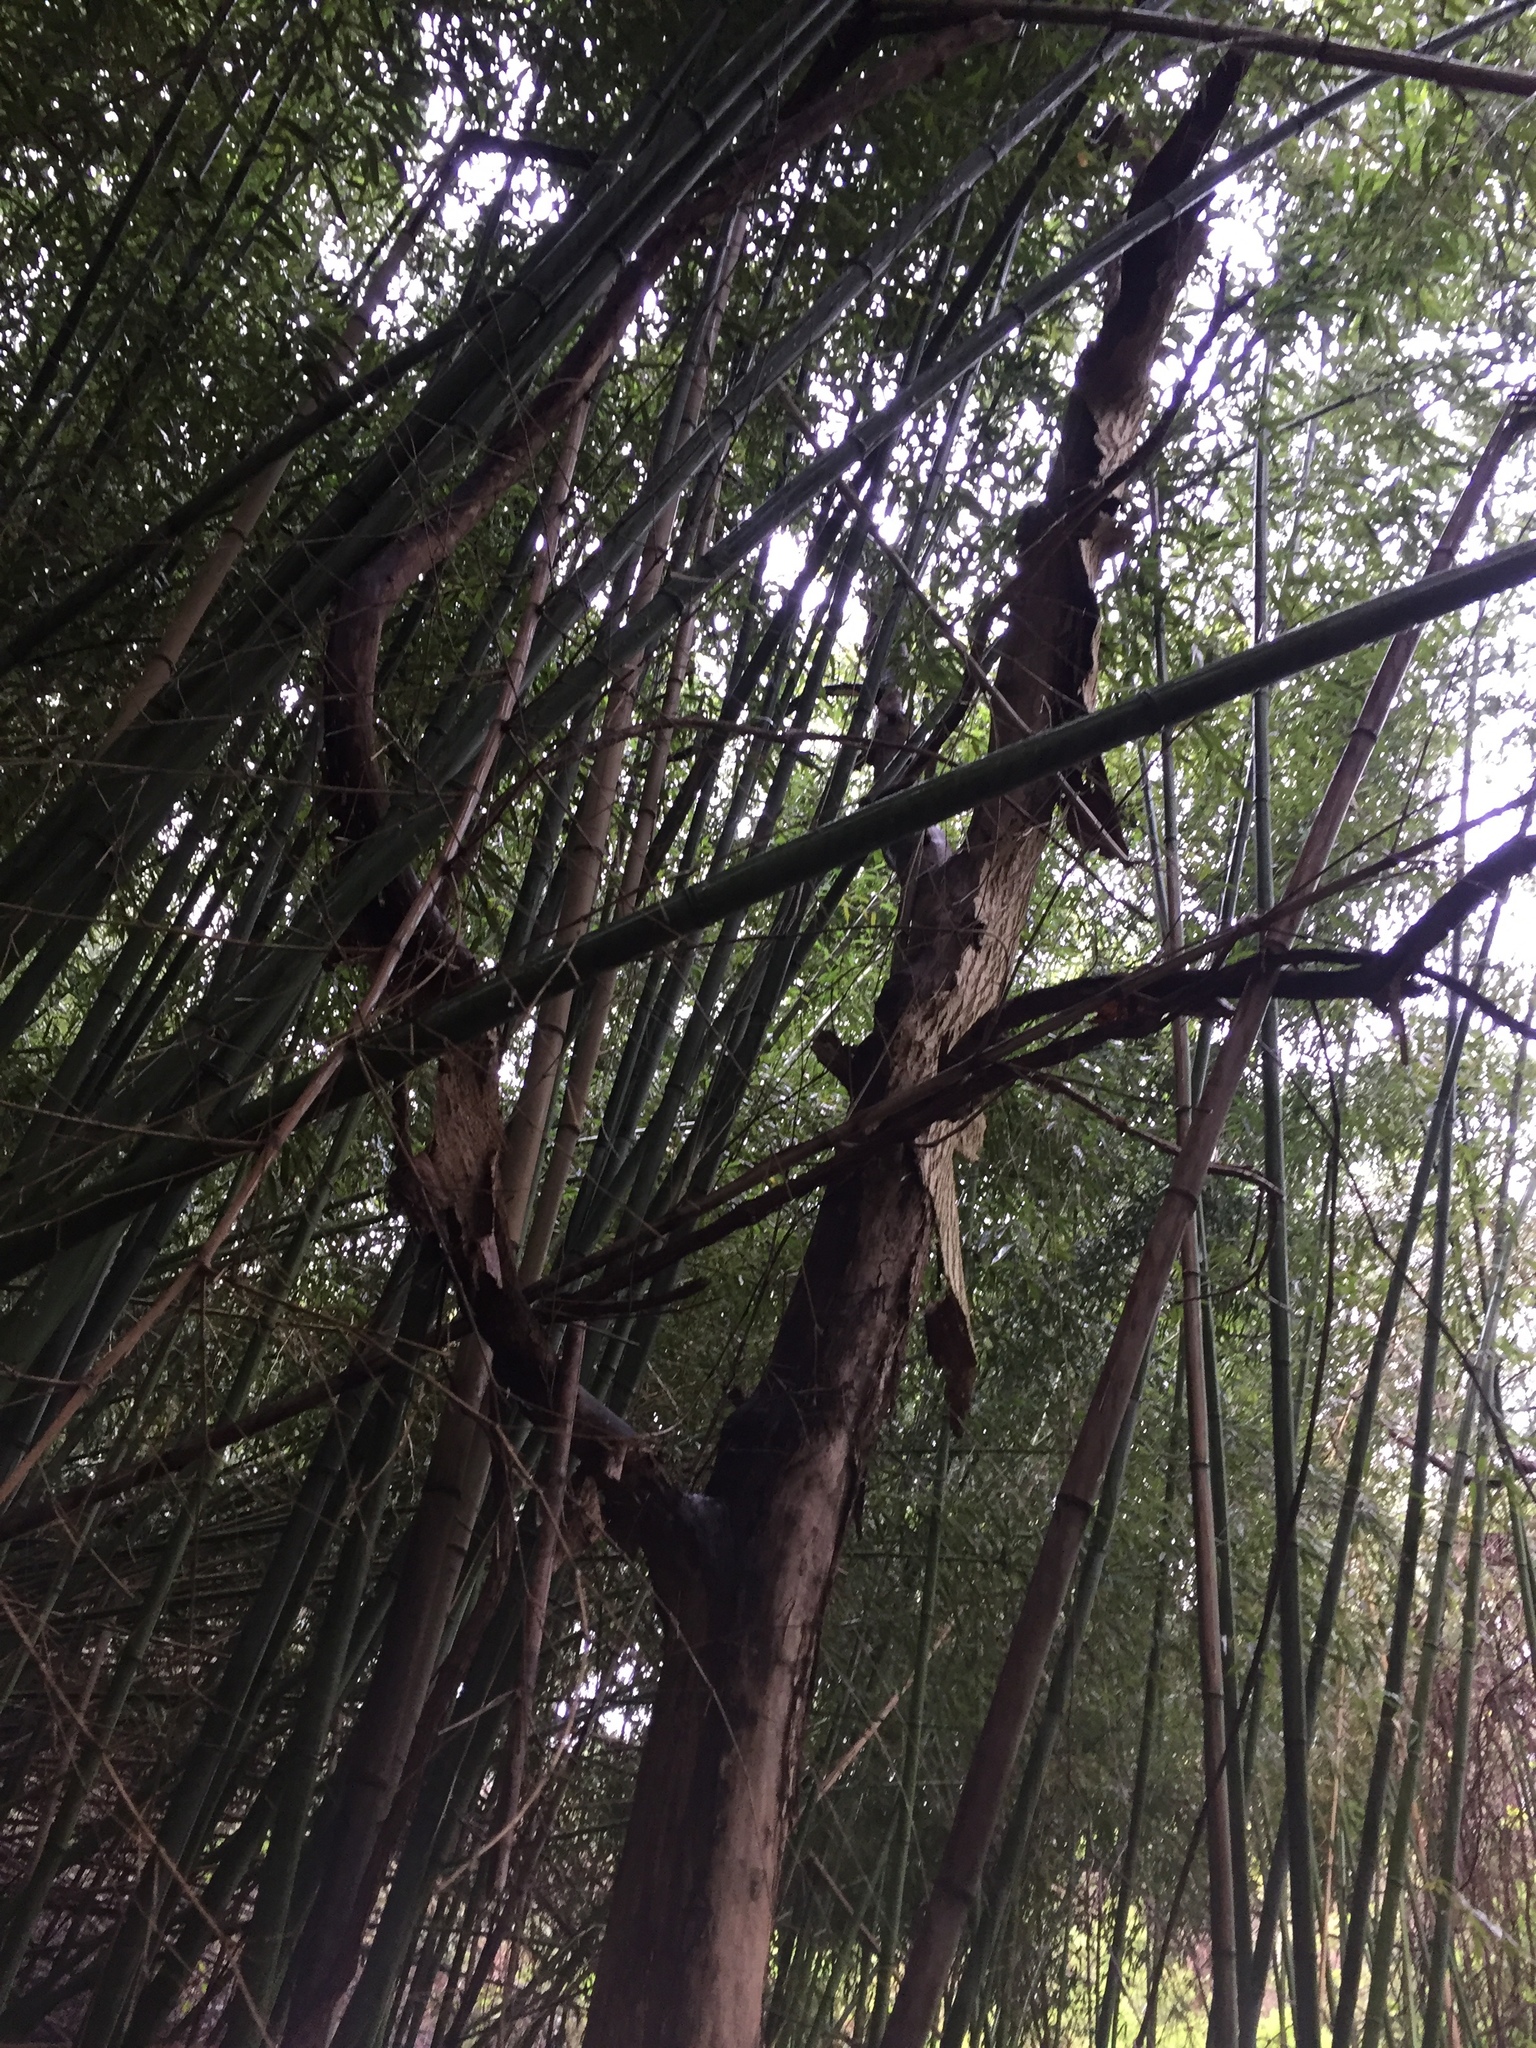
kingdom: Plantae
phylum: Tracheophyta
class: Liliopsida
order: Poales
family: Poaceae
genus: Bambusa
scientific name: Bambusa vulgaris
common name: Common bamboo
